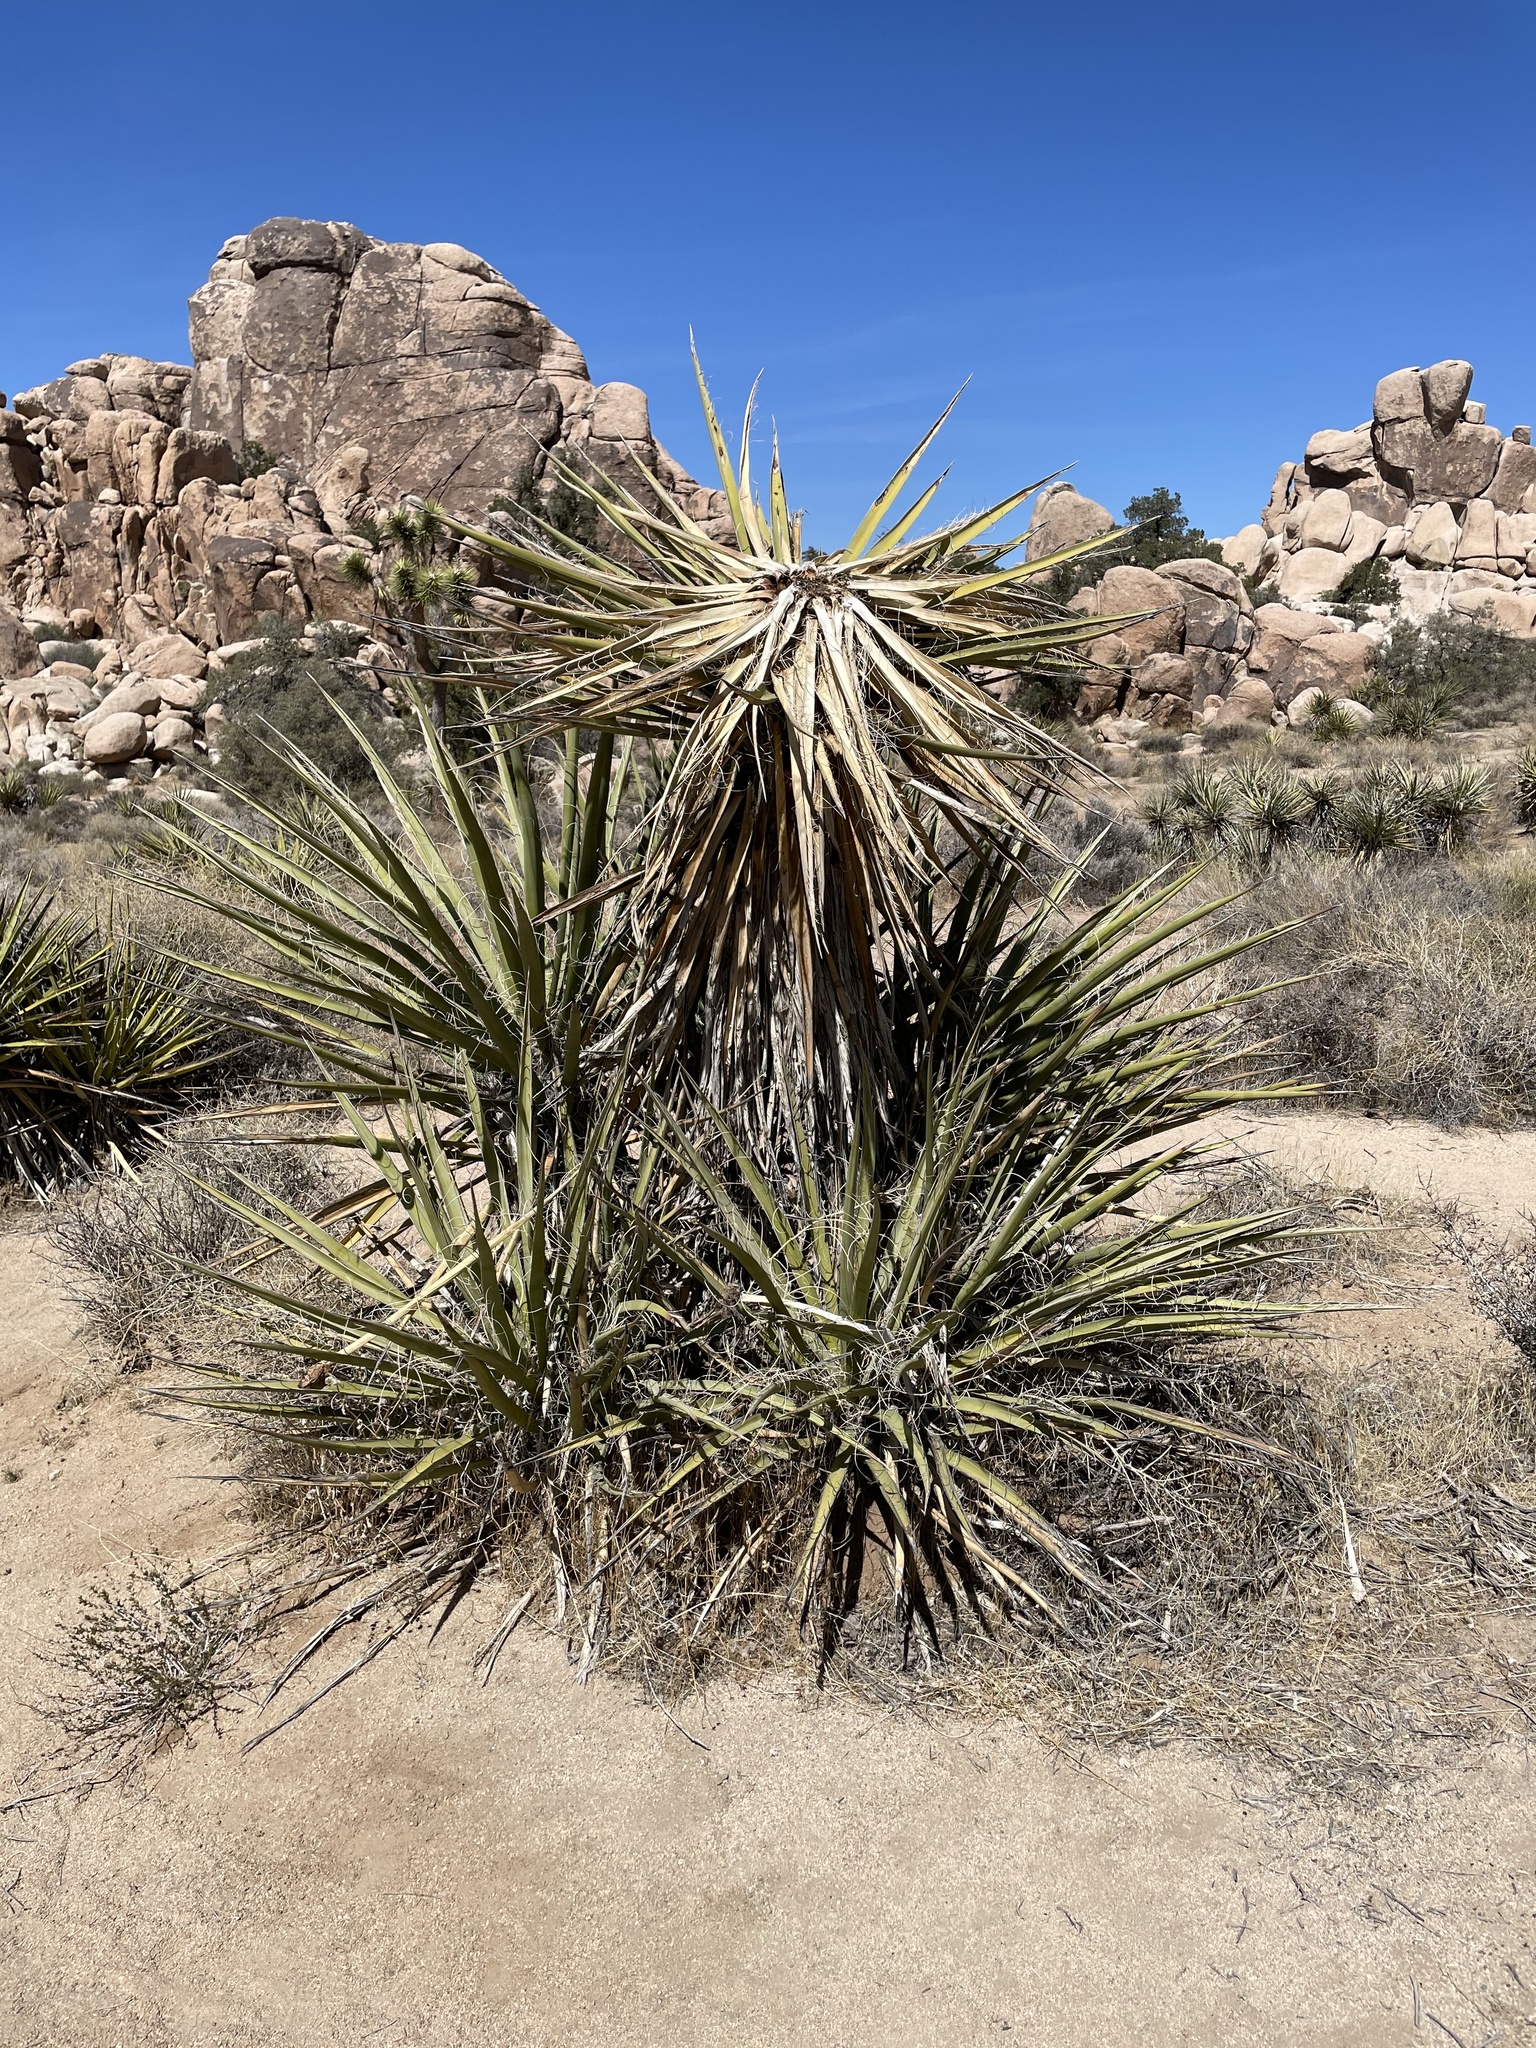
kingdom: Plantae
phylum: Tracheophyta
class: Liliopsida
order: Asparagales
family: Asparagaceae
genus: Yucca
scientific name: Yucca schidigera
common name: Mojave yucca
